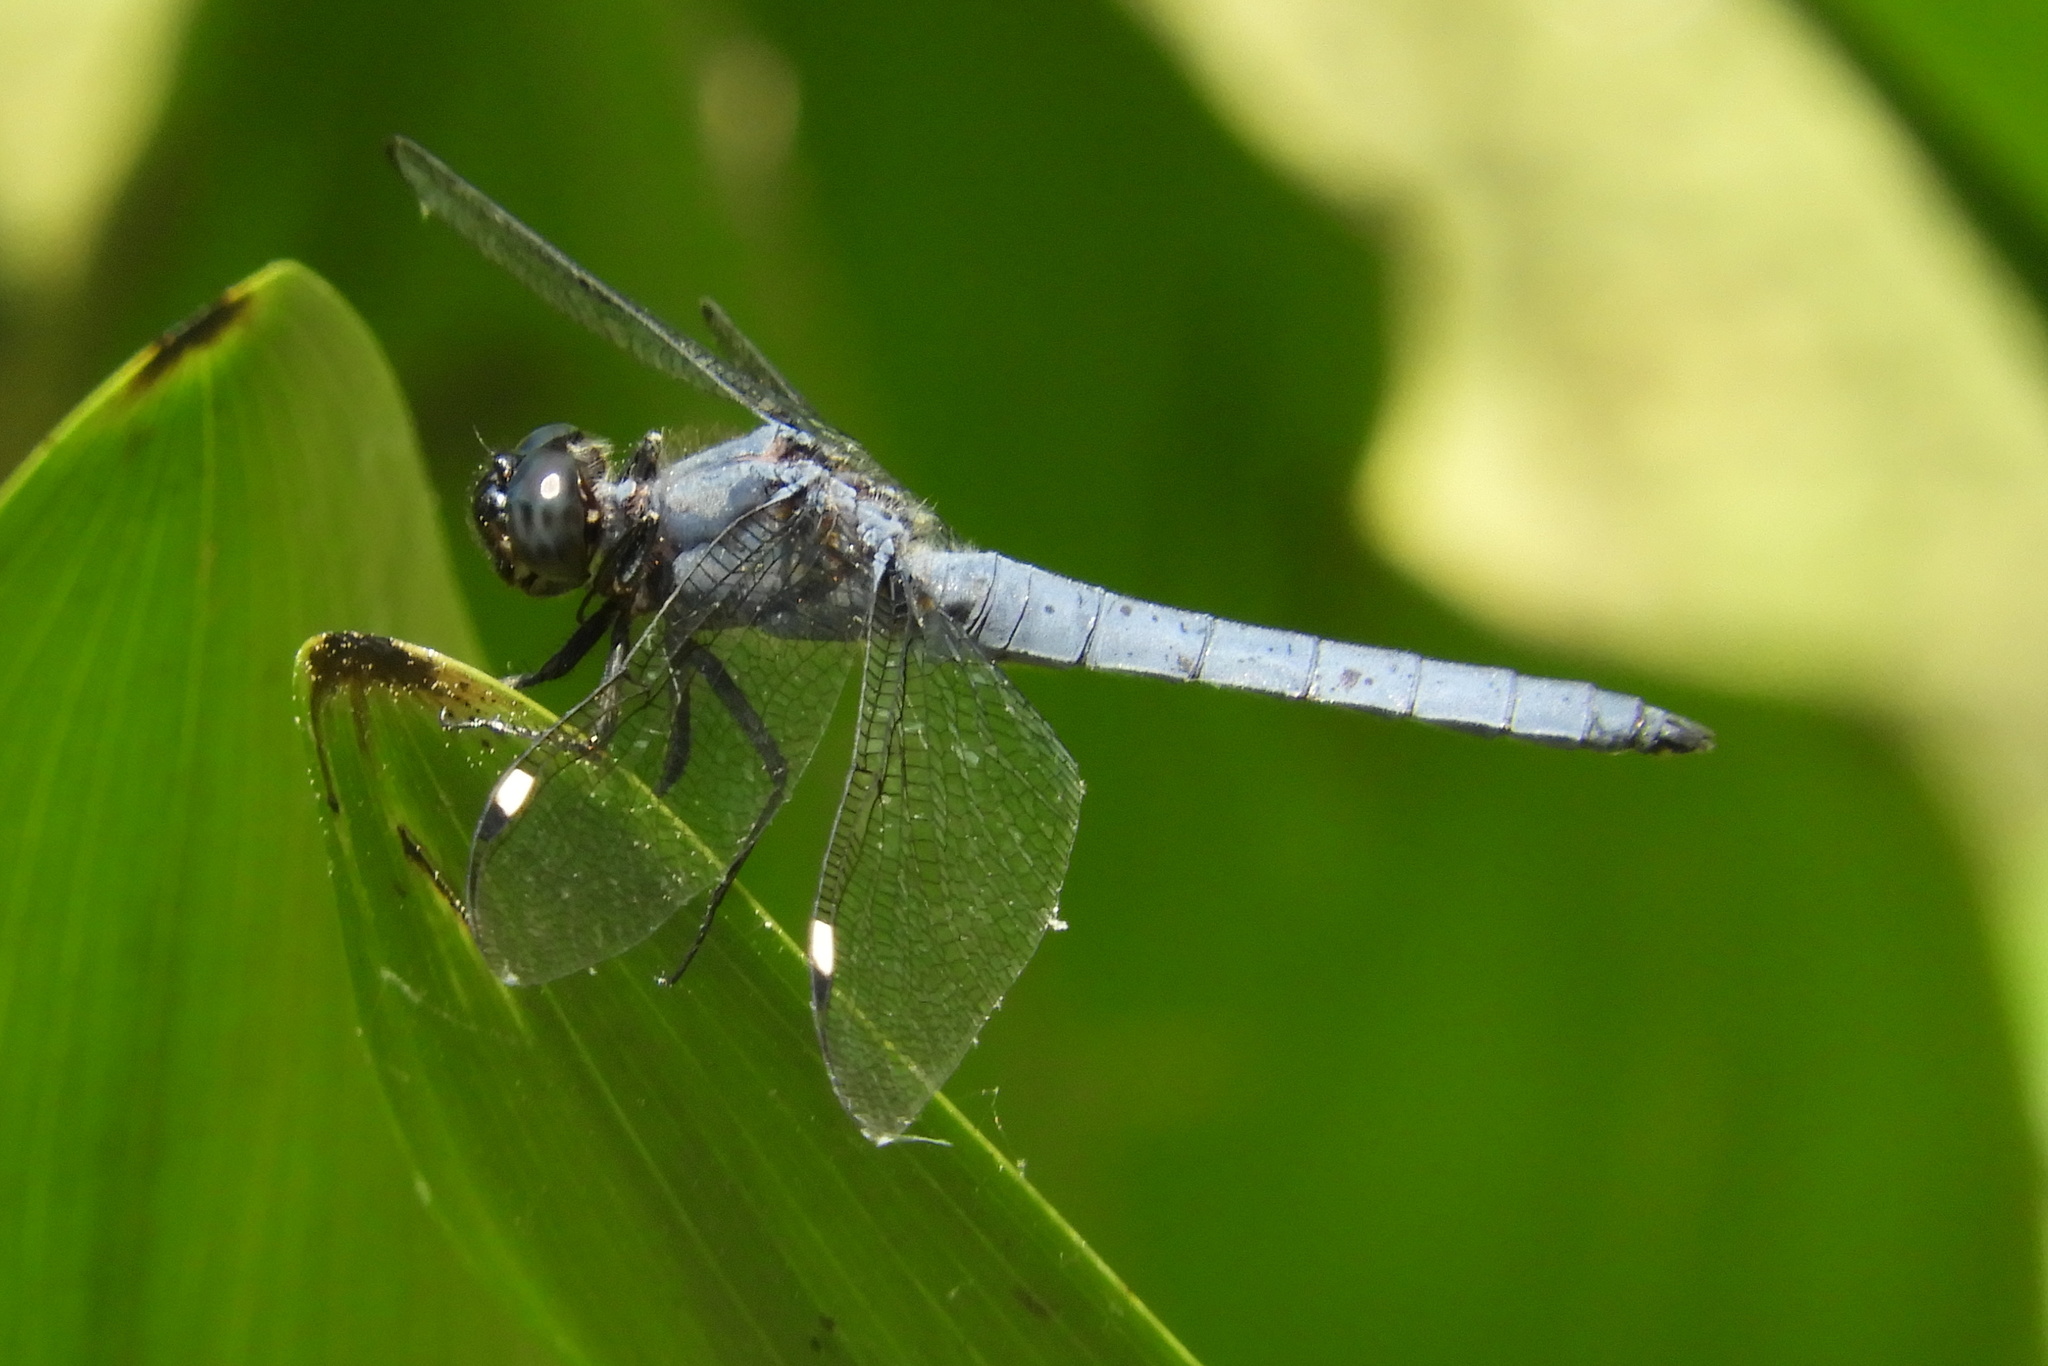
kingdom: Animalia
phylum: Arthropoda
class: Insecta
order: Odonata
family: Libellulidae
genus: Libellula
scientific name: Libellula cyanea
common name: Spangled skimmer
